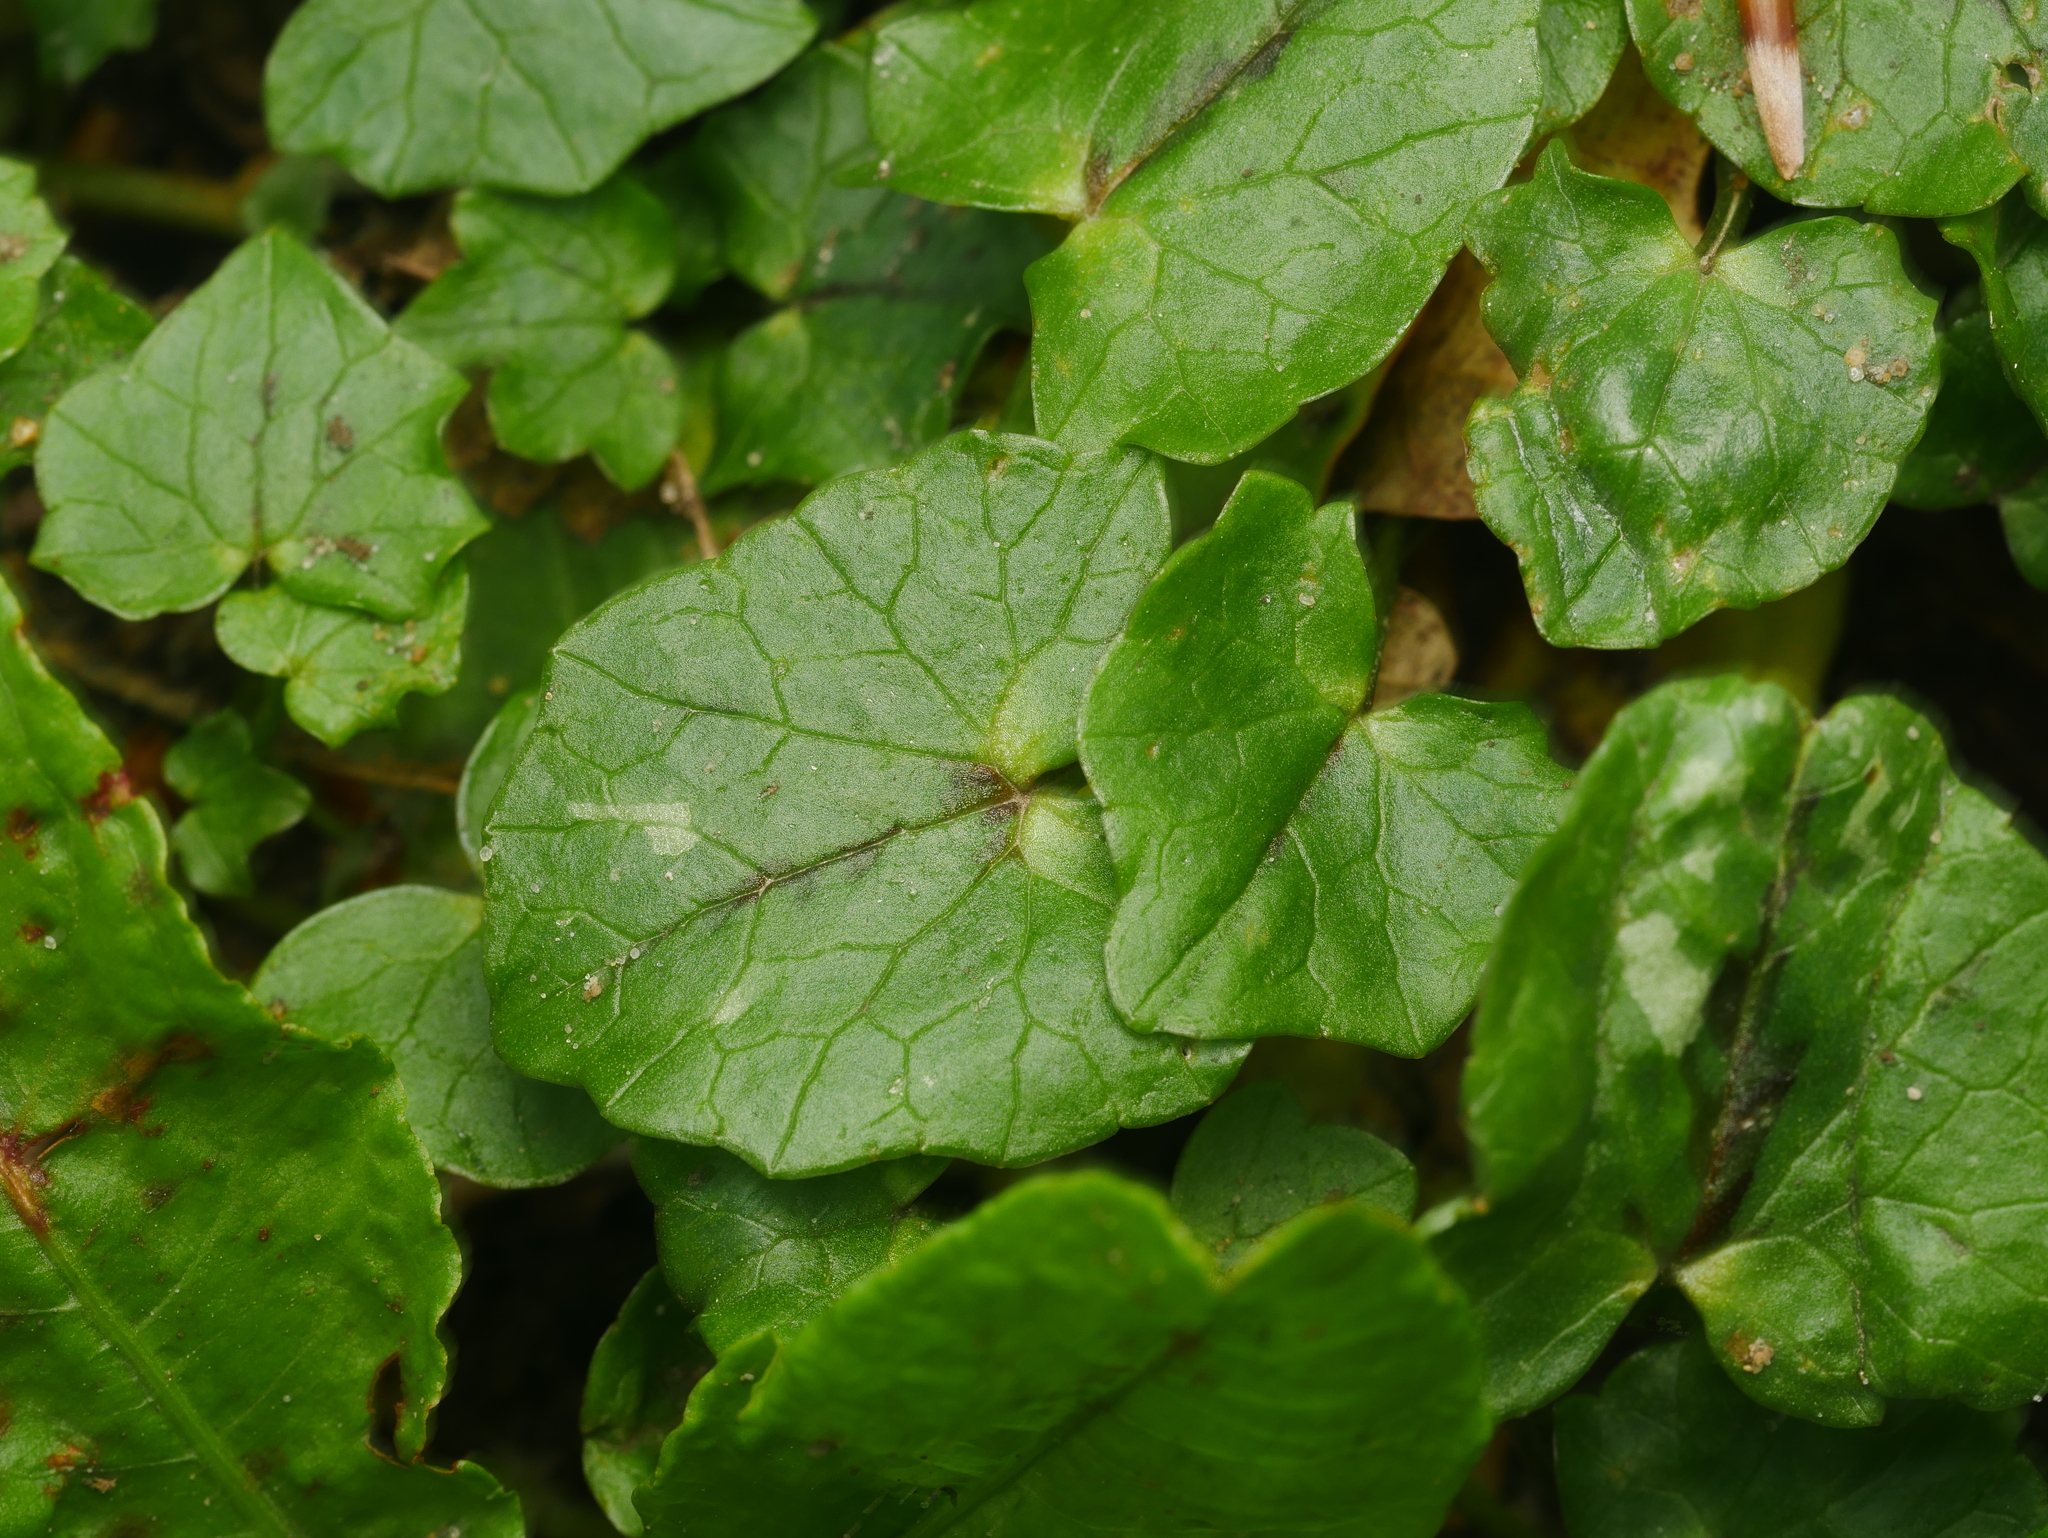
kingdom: Plantae
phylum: Tracheophyta
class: Magnoliopsida
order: Ranunculales
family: Ranunculaceae
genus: Ficaria
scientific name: Ficaria verna
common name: Lesser celandine
